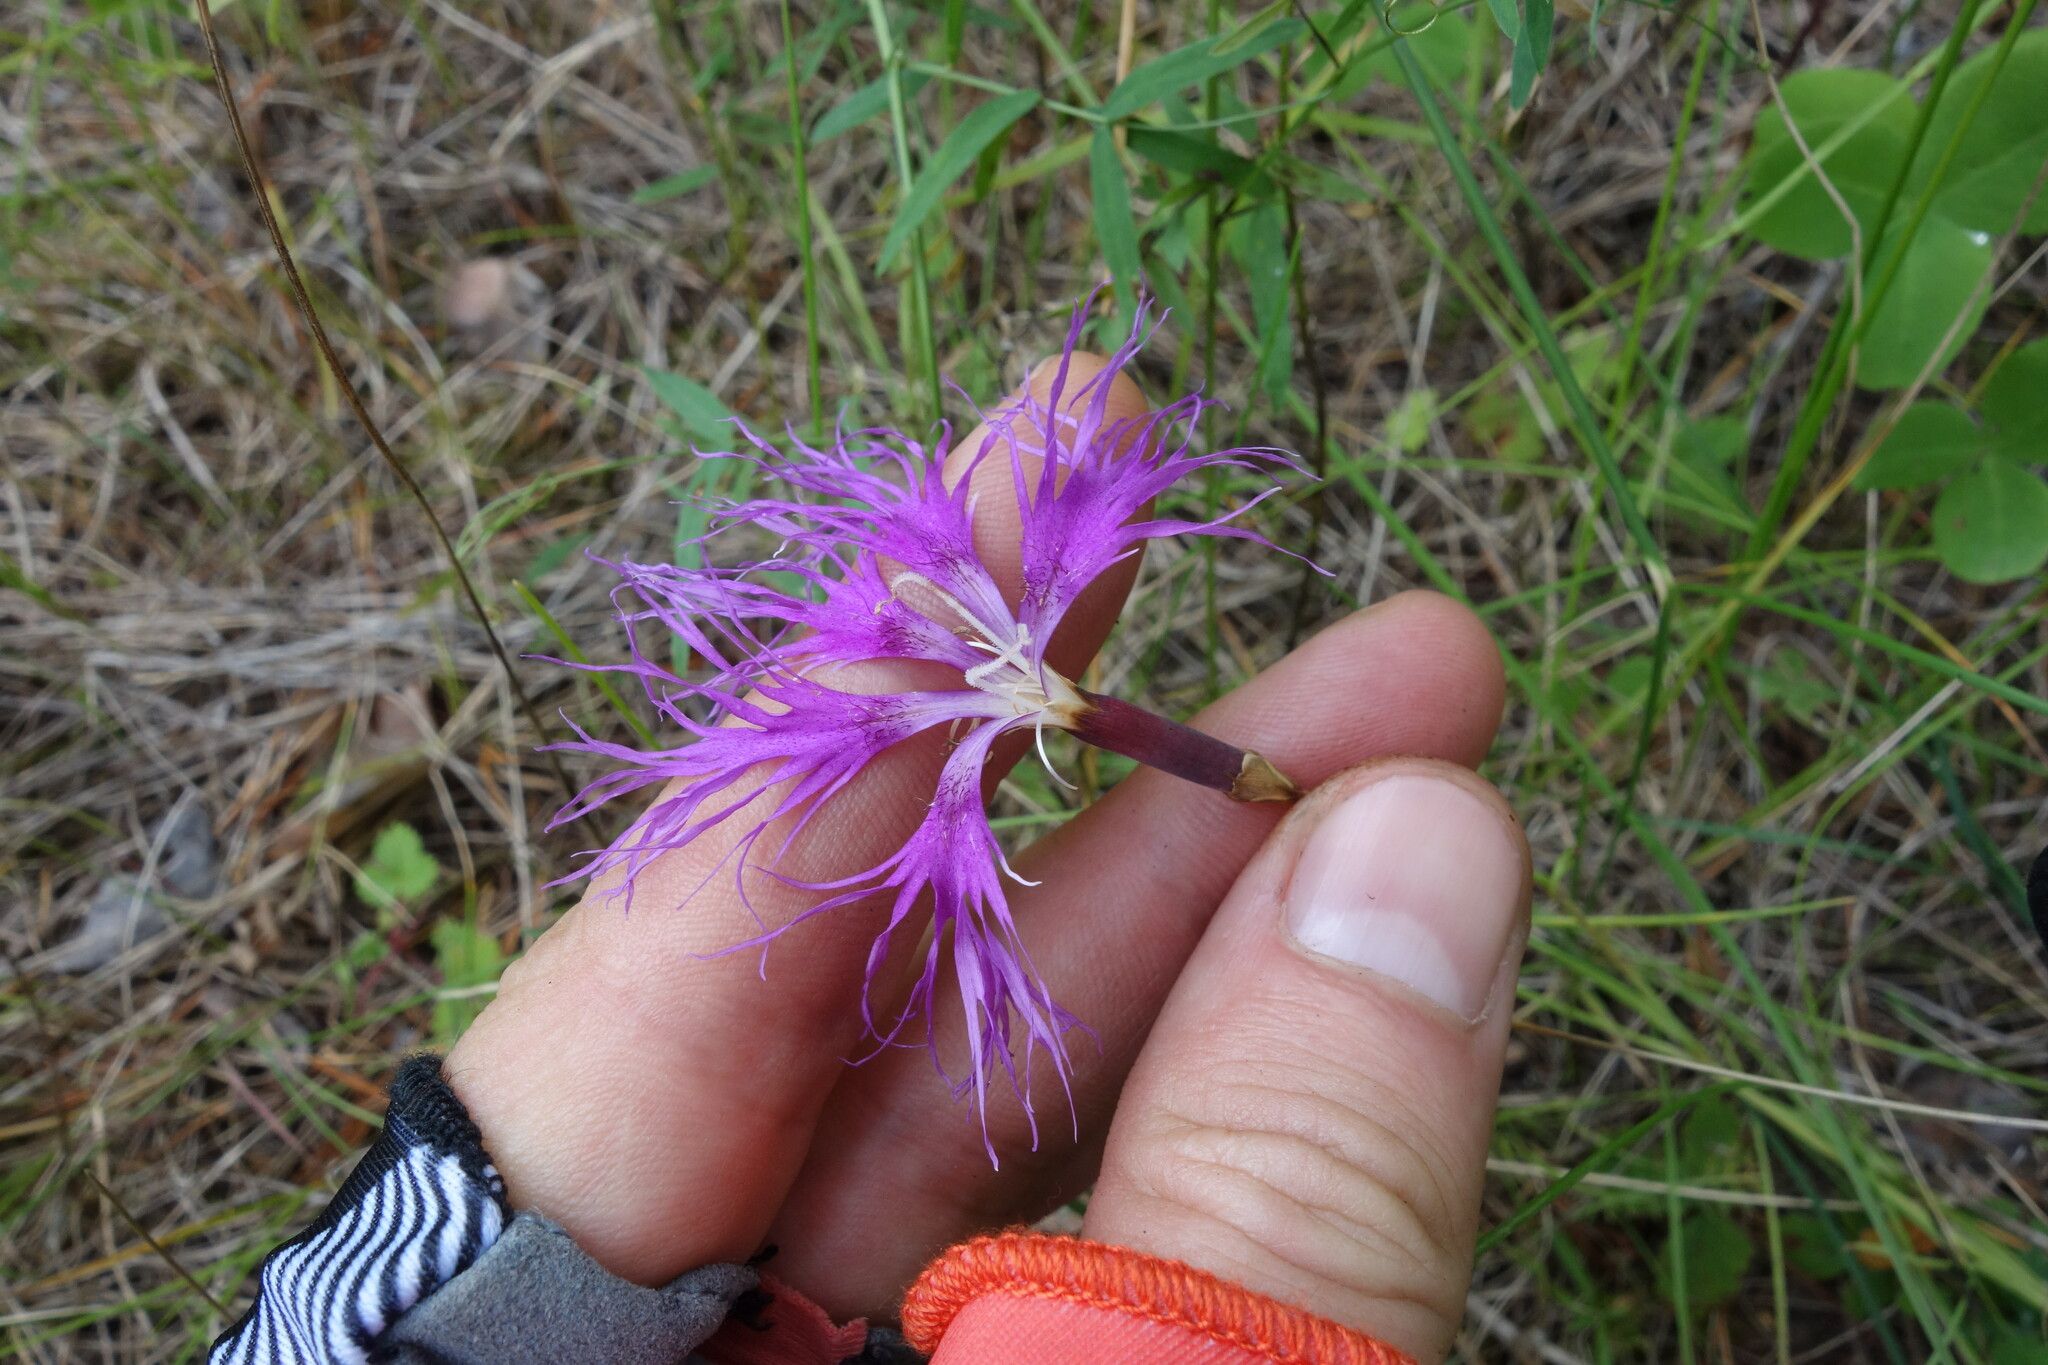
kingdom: Plantae
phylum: Tracheophyta
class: Magnoliopsida
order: Caryophyllales
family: Caryophyllaceae
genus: Dianthus
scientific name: Dianthus superbus
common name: Fringed pink
